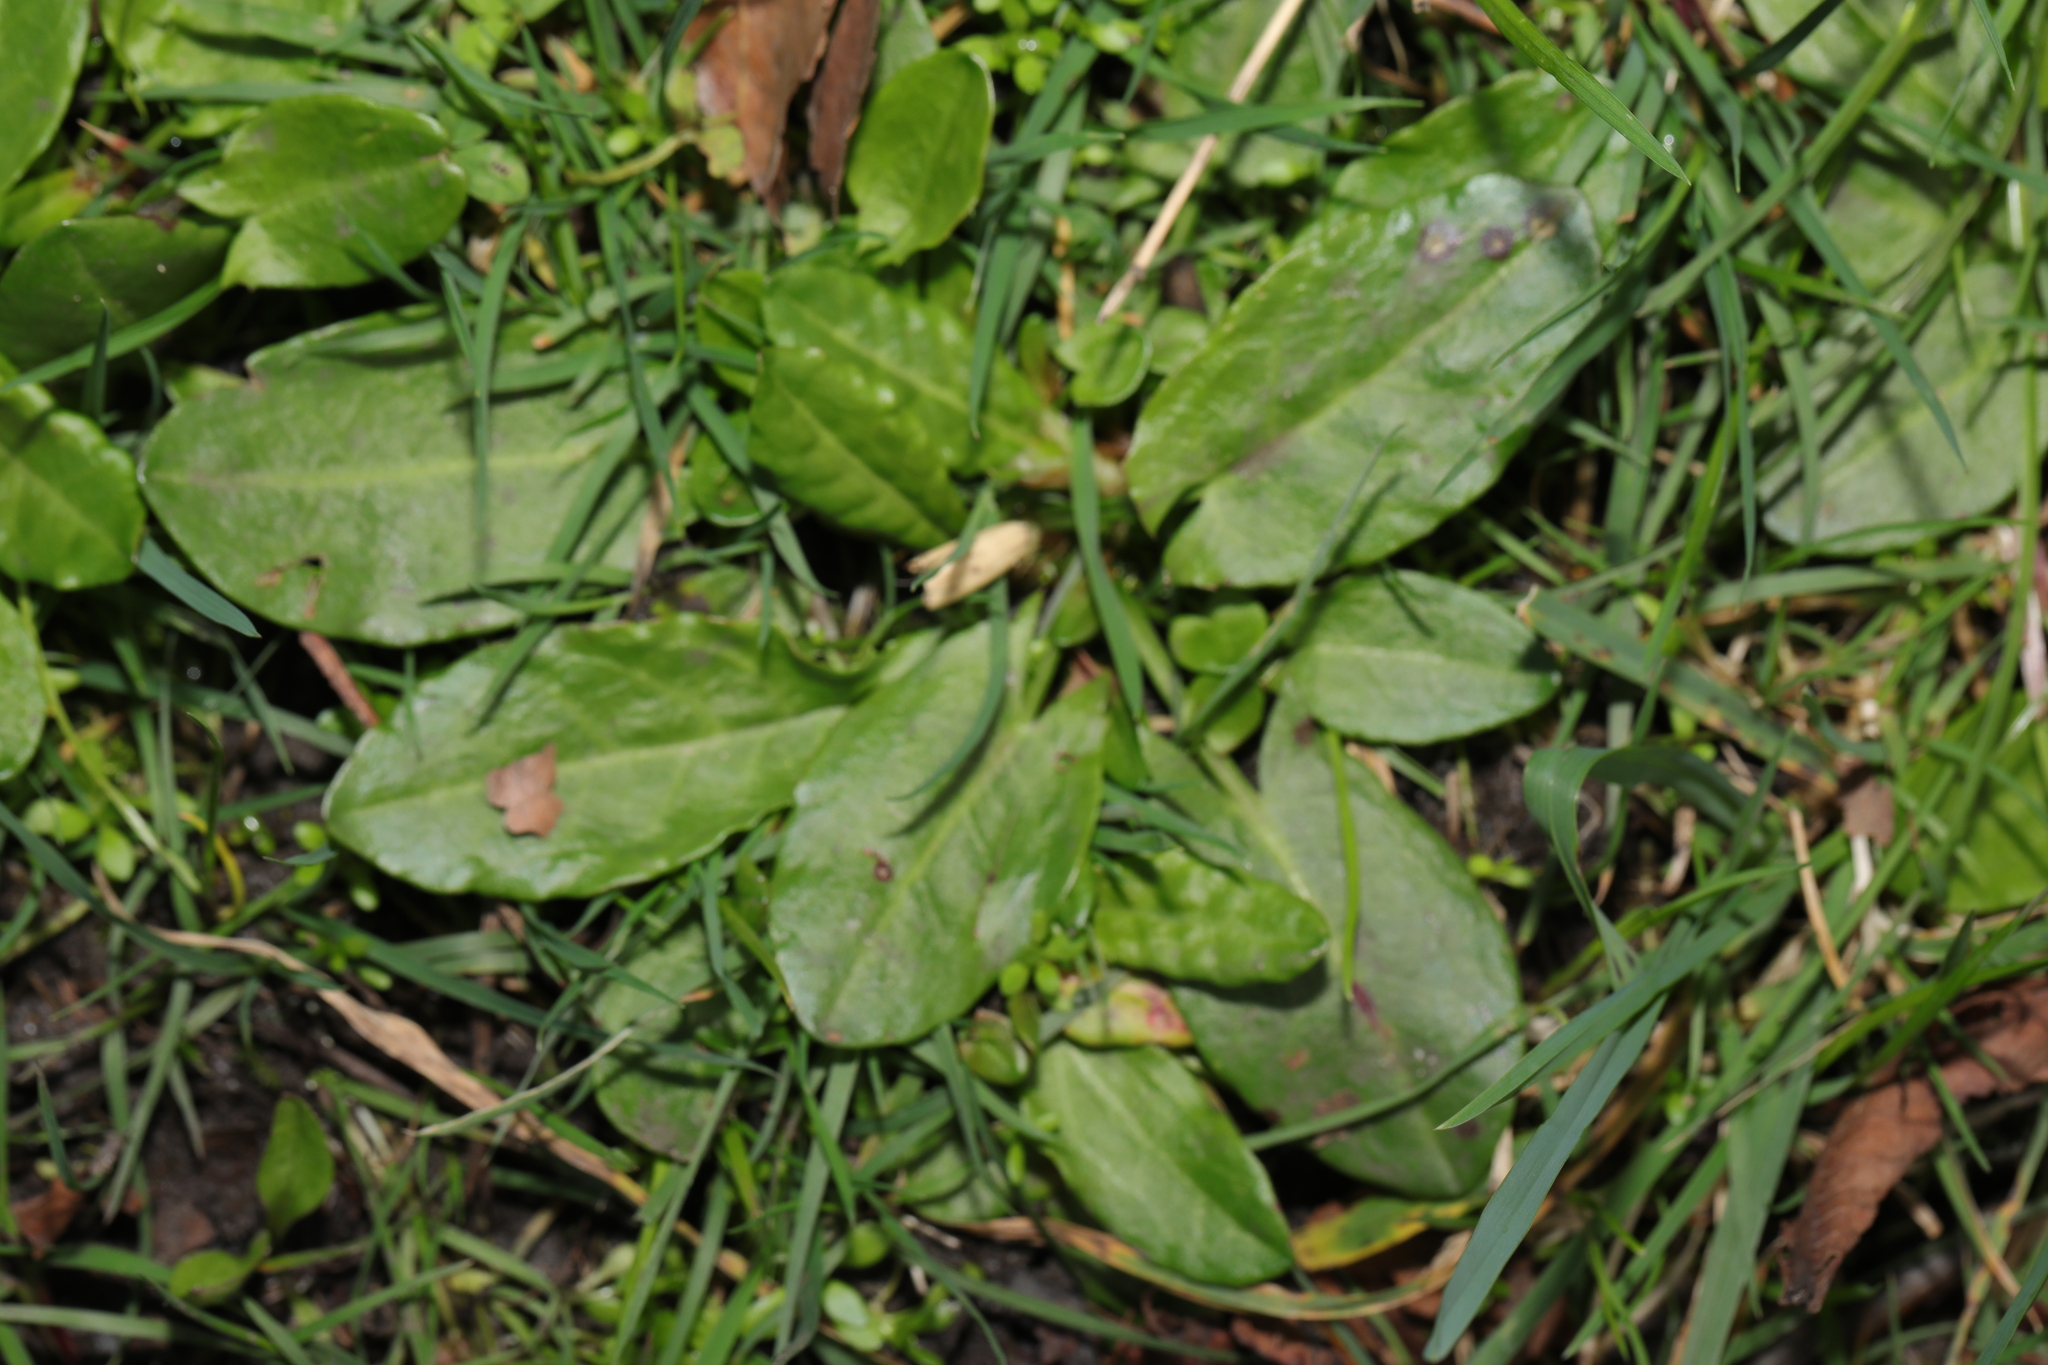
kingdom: Plantae
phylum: Tracheophyta
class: Magnoliopsida
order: Caryophyllales
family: Polygonaceae
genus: Rumex
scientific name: Rumex acetosa
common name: Garden sorrel
